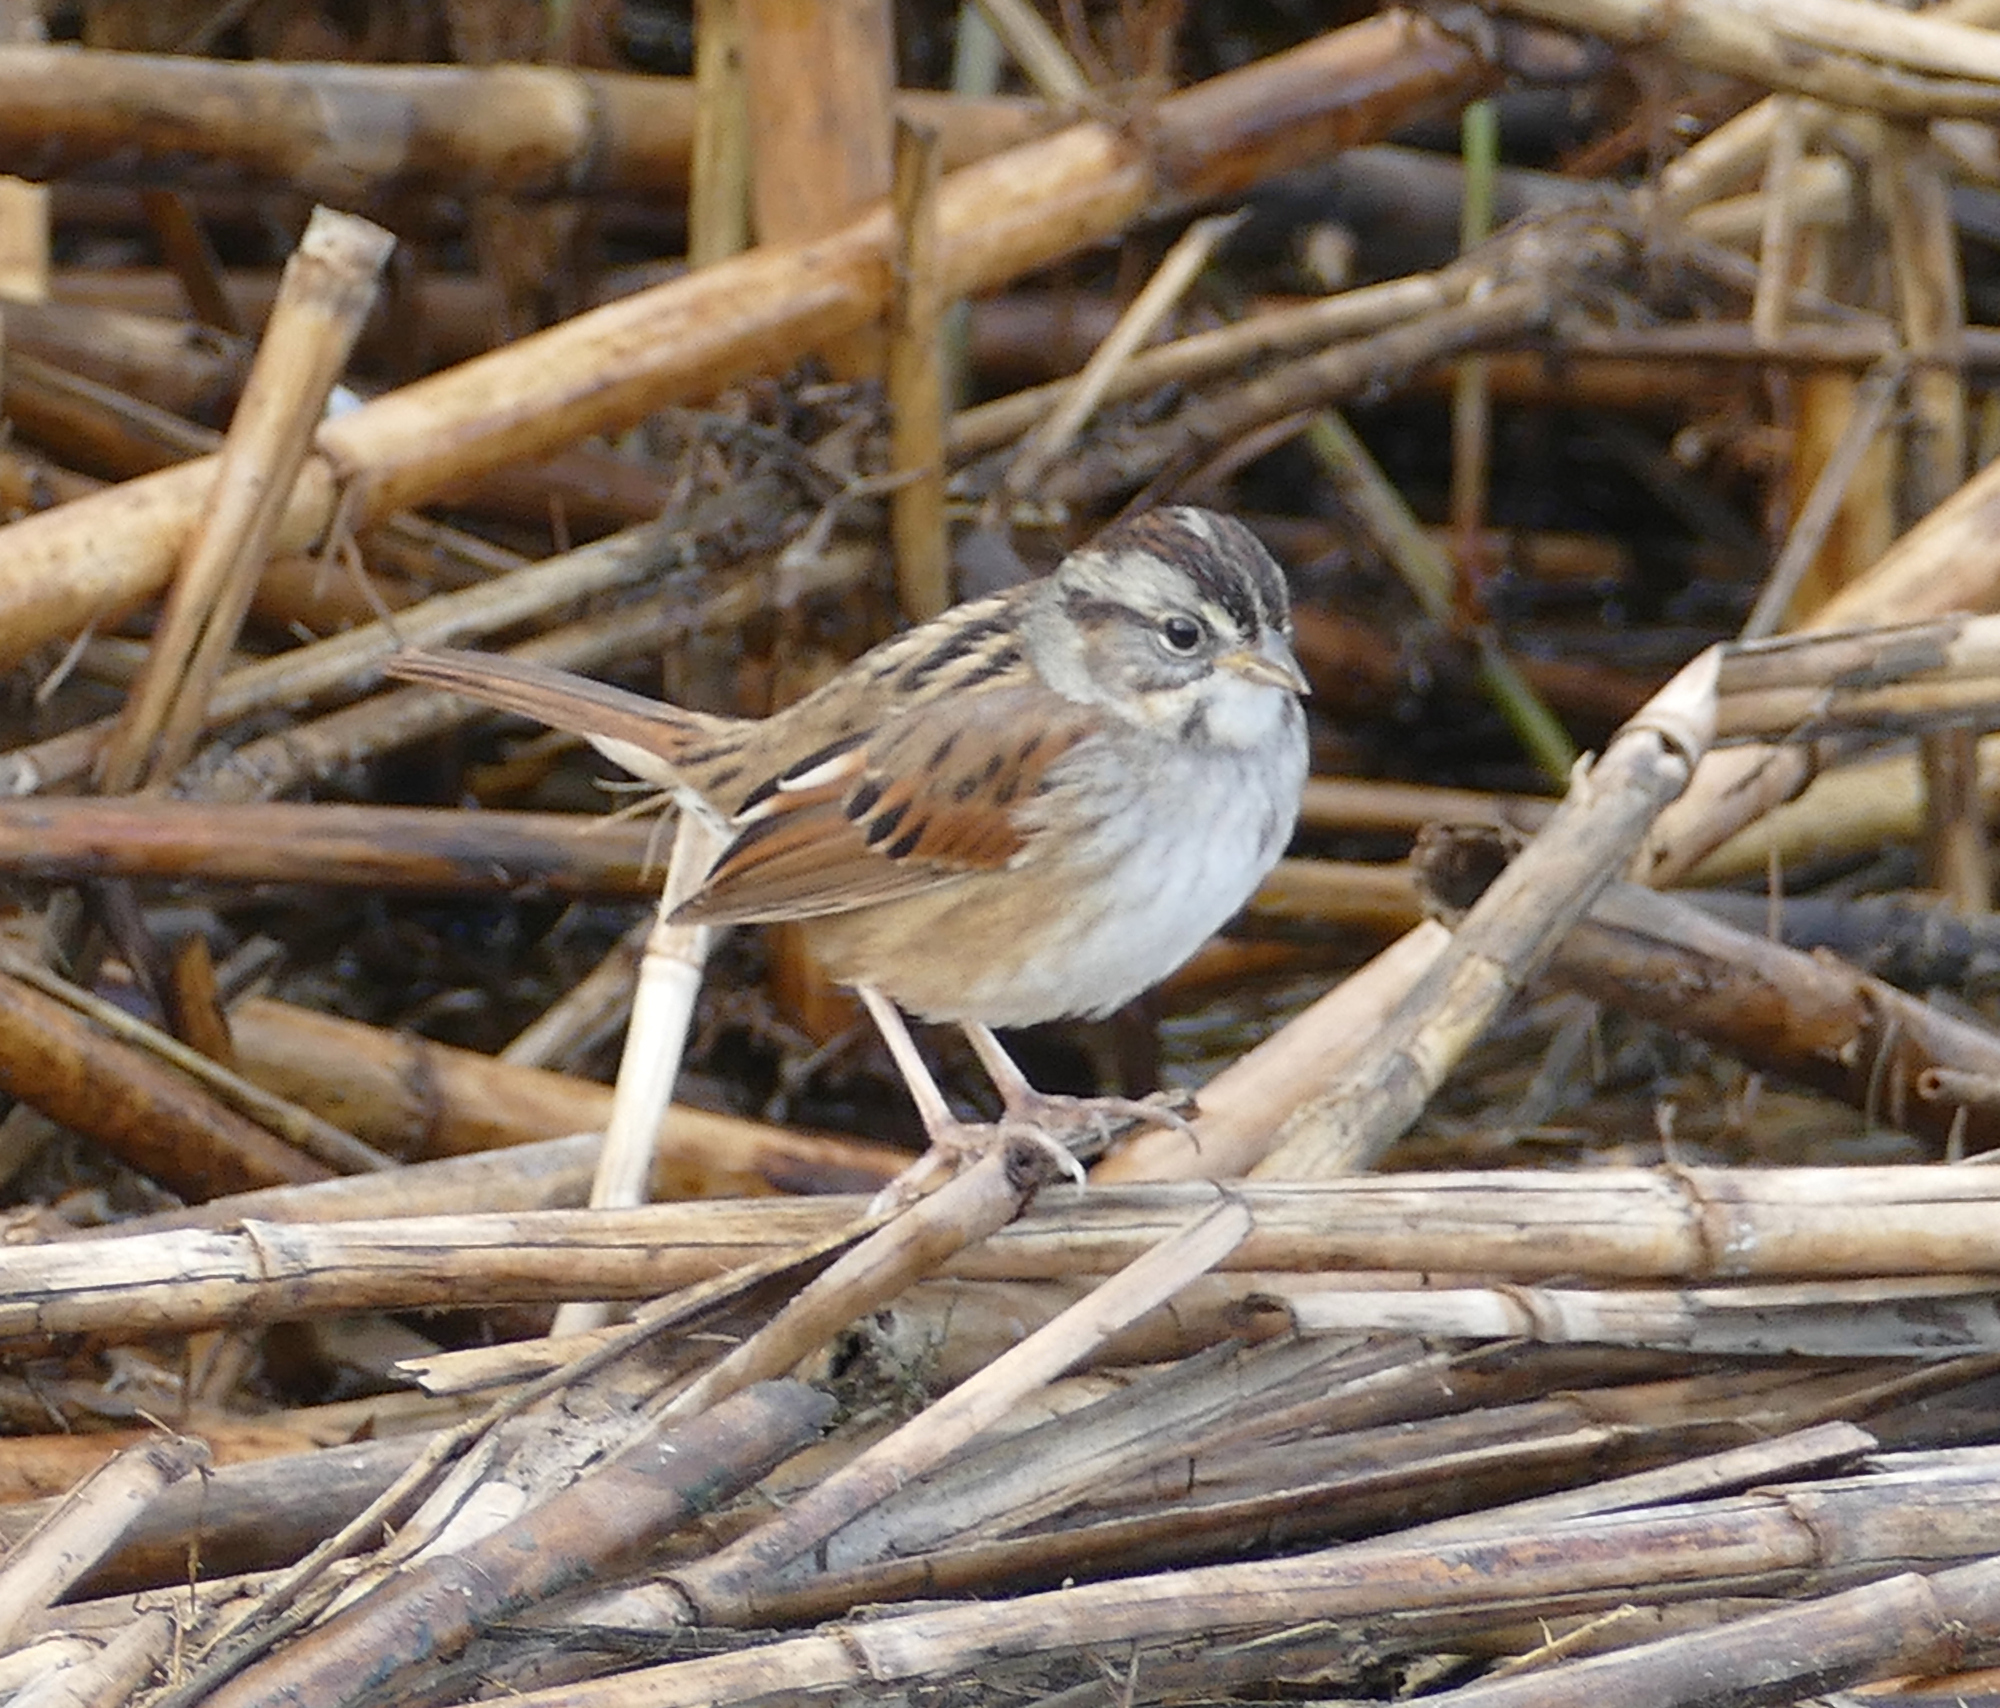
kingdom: Animalia
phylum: Chordata
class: Aves
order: Passeriformes
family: Passerellidae
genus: Melospiza
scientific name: Melospiza georgiana
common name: Swamp sparrow
